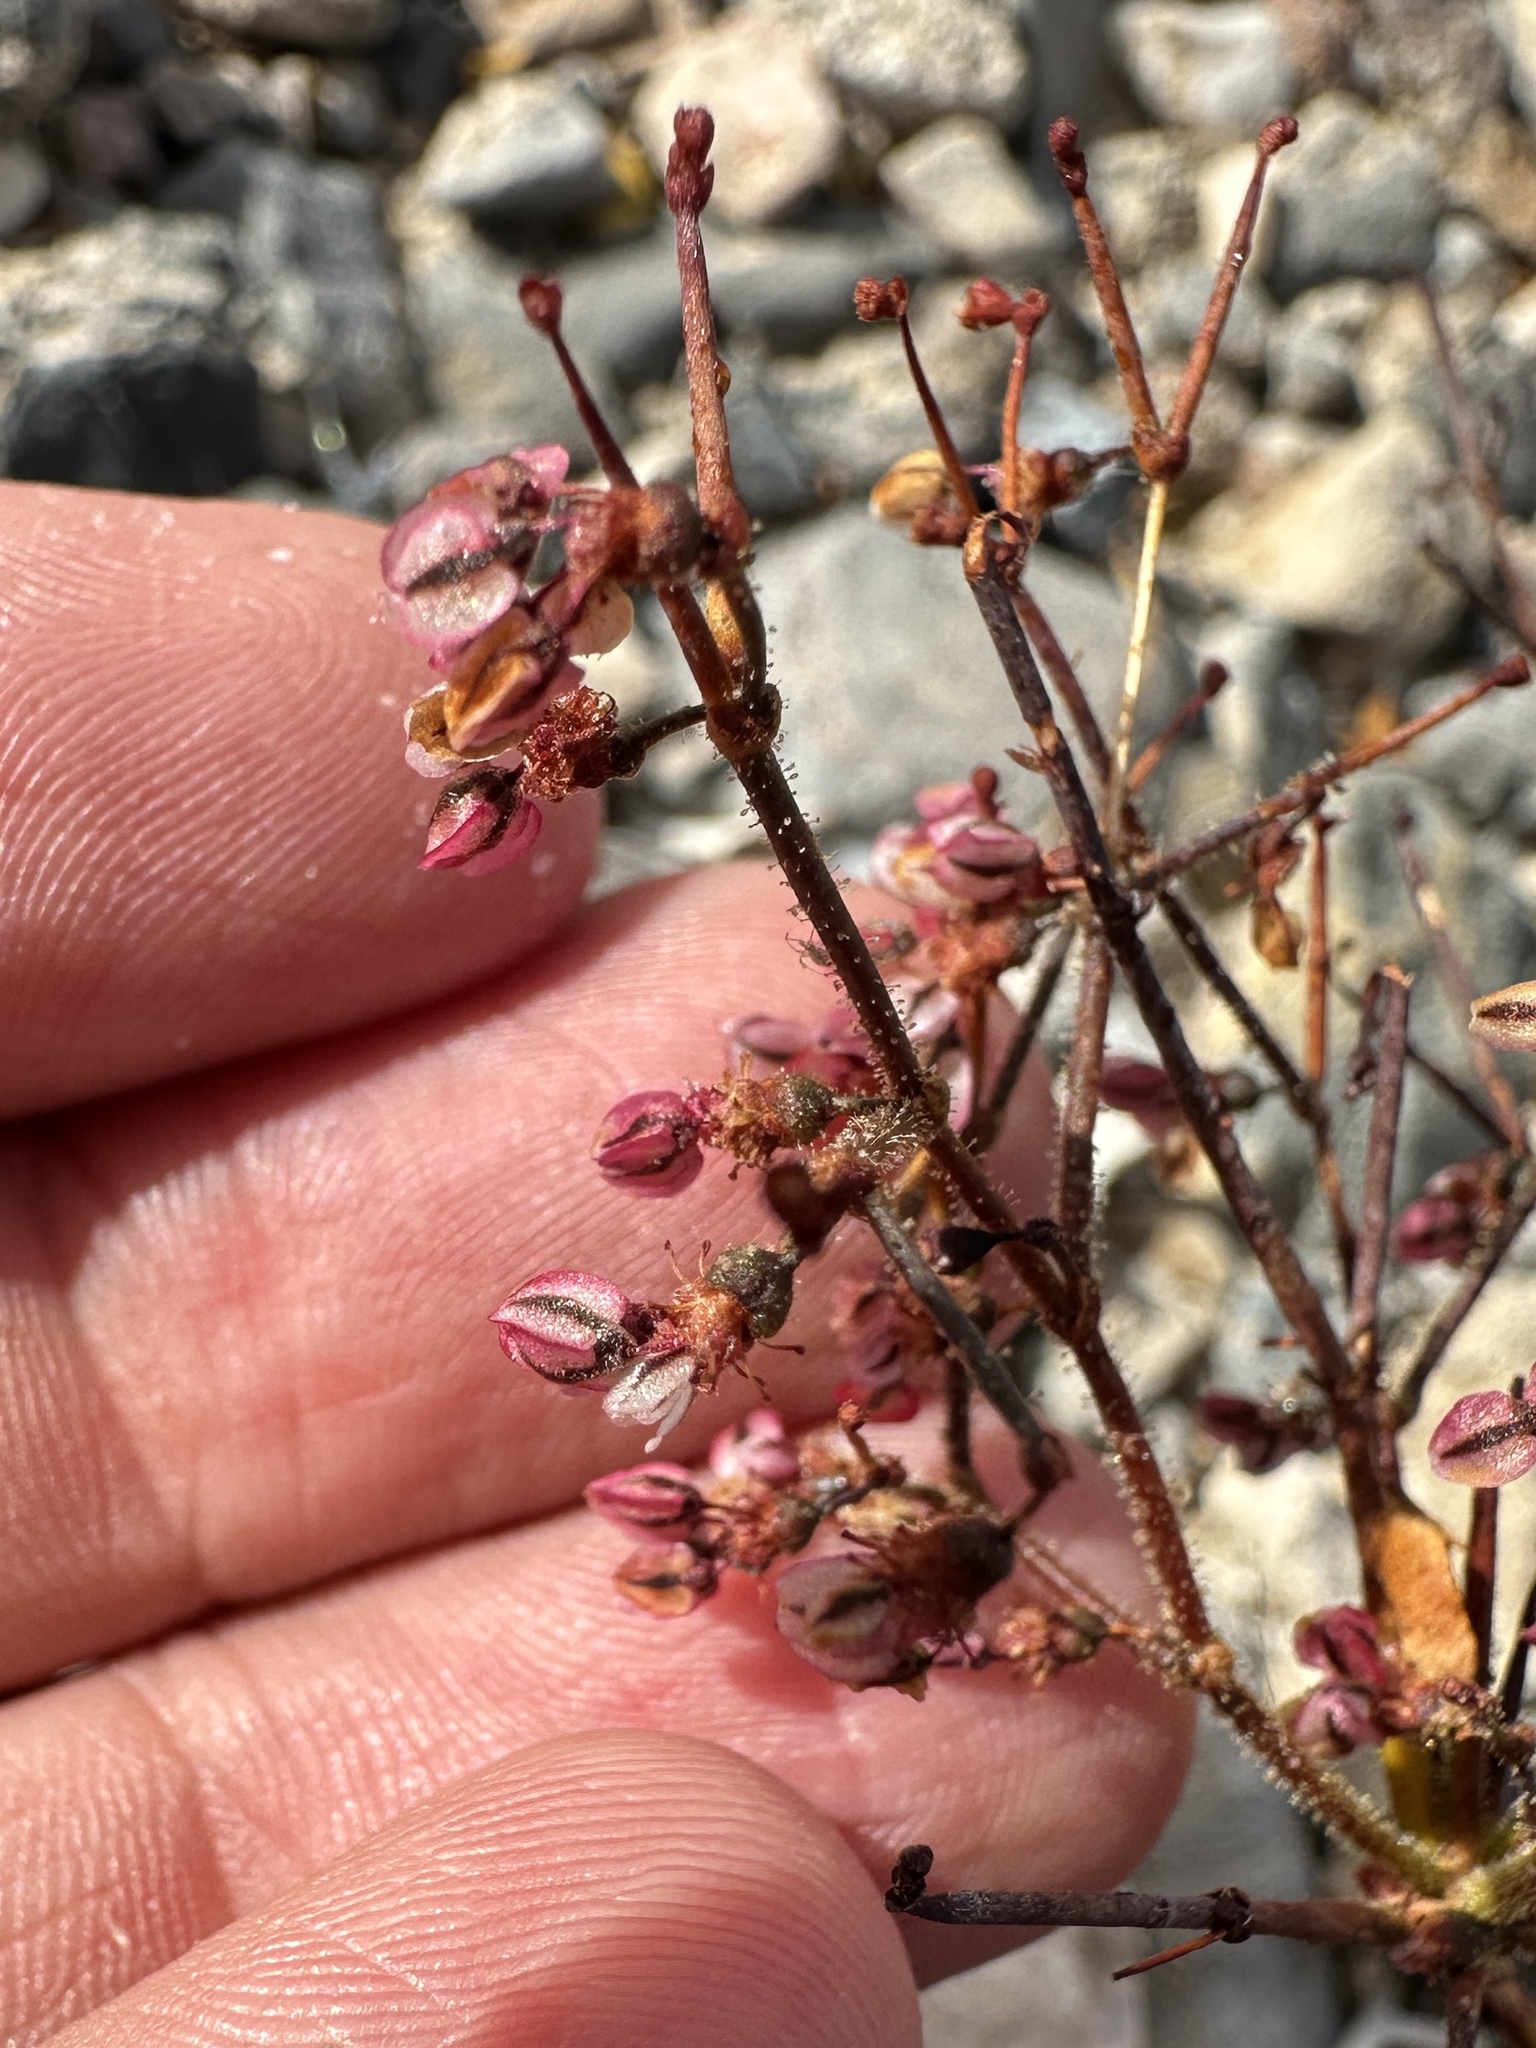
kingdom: Plantae
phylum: Tracheophyta
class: Magnoliopsida
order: Caryophyllales
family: Polygonaceae
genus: Eriogonum
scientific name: Eriogonum brachypodum
